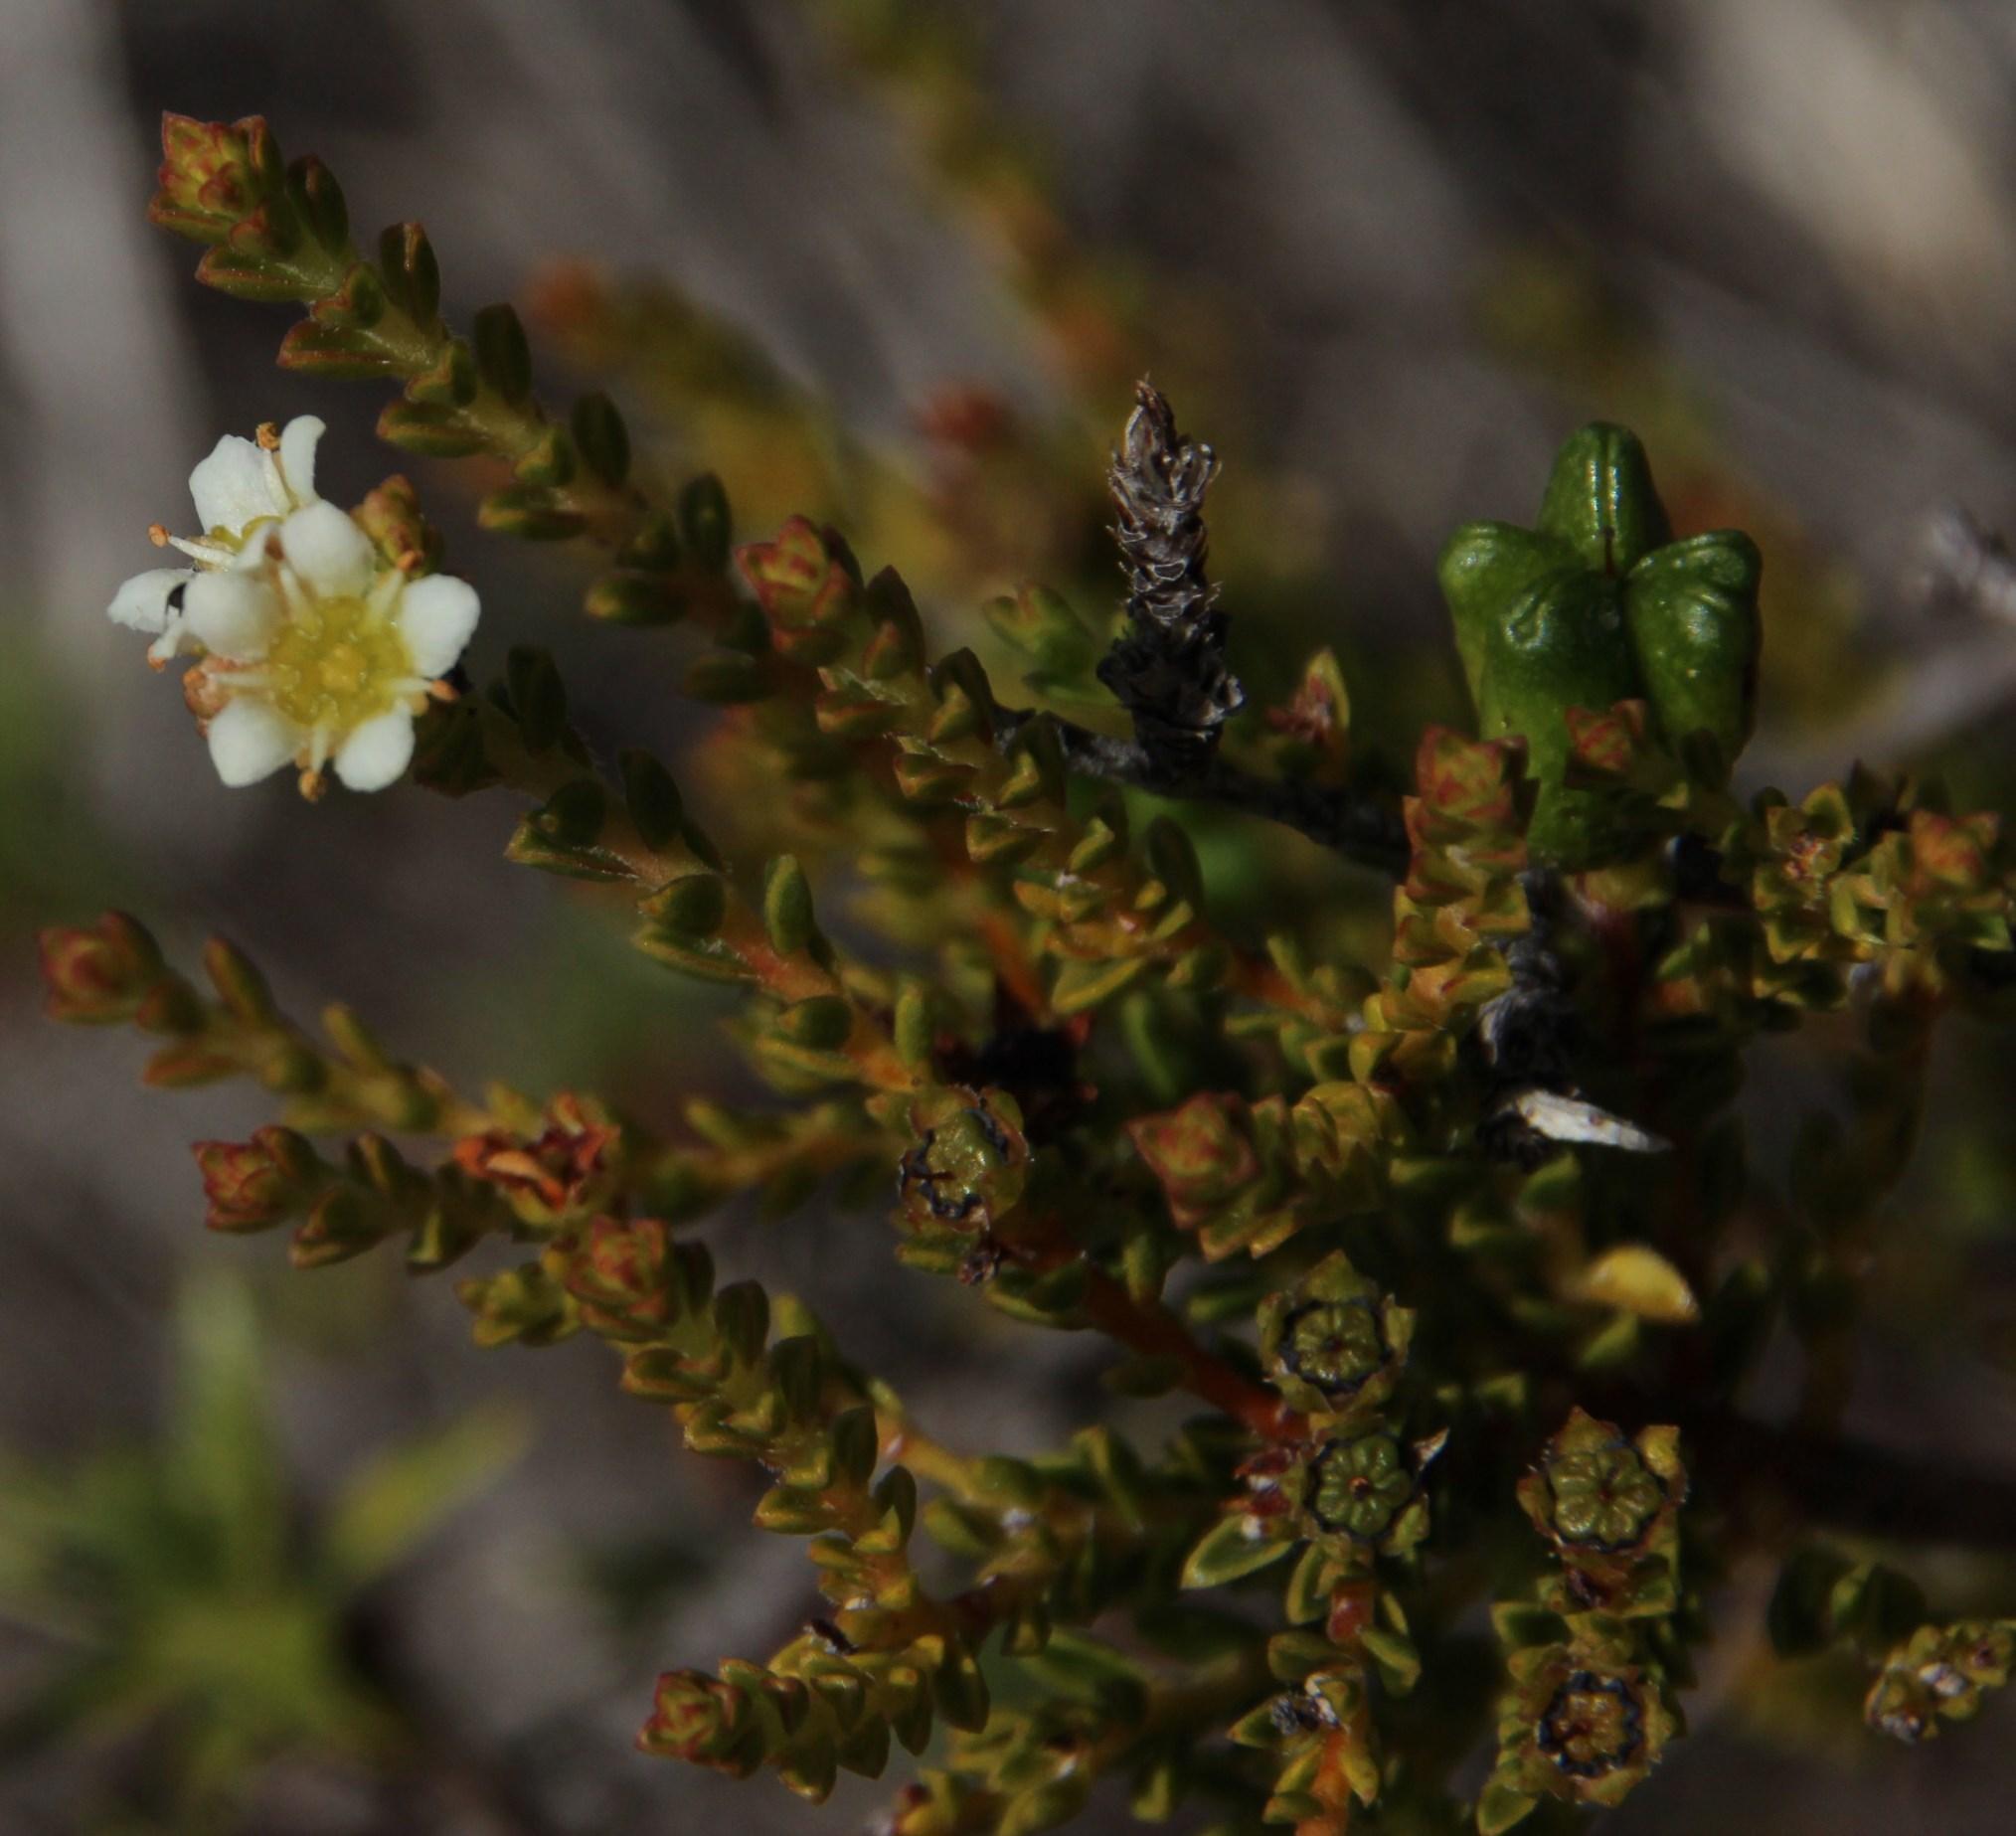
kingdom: Plantae
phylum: Tracheophyta
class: Magnoliopsida
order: Sapindales
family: Rutaceae
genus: Diosma
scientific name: Diosma oppositifolia
